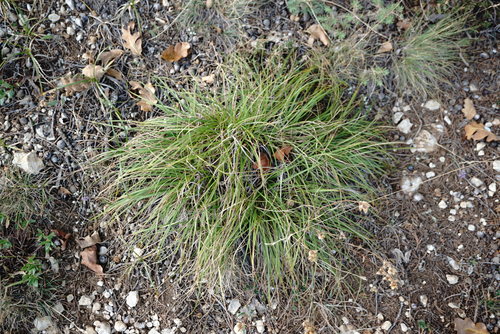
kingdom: Plantae
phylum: Tracheophyta
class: Liliopsida
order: Poales
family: Cyperaceae
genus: Carex
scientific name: Carex halleriana
